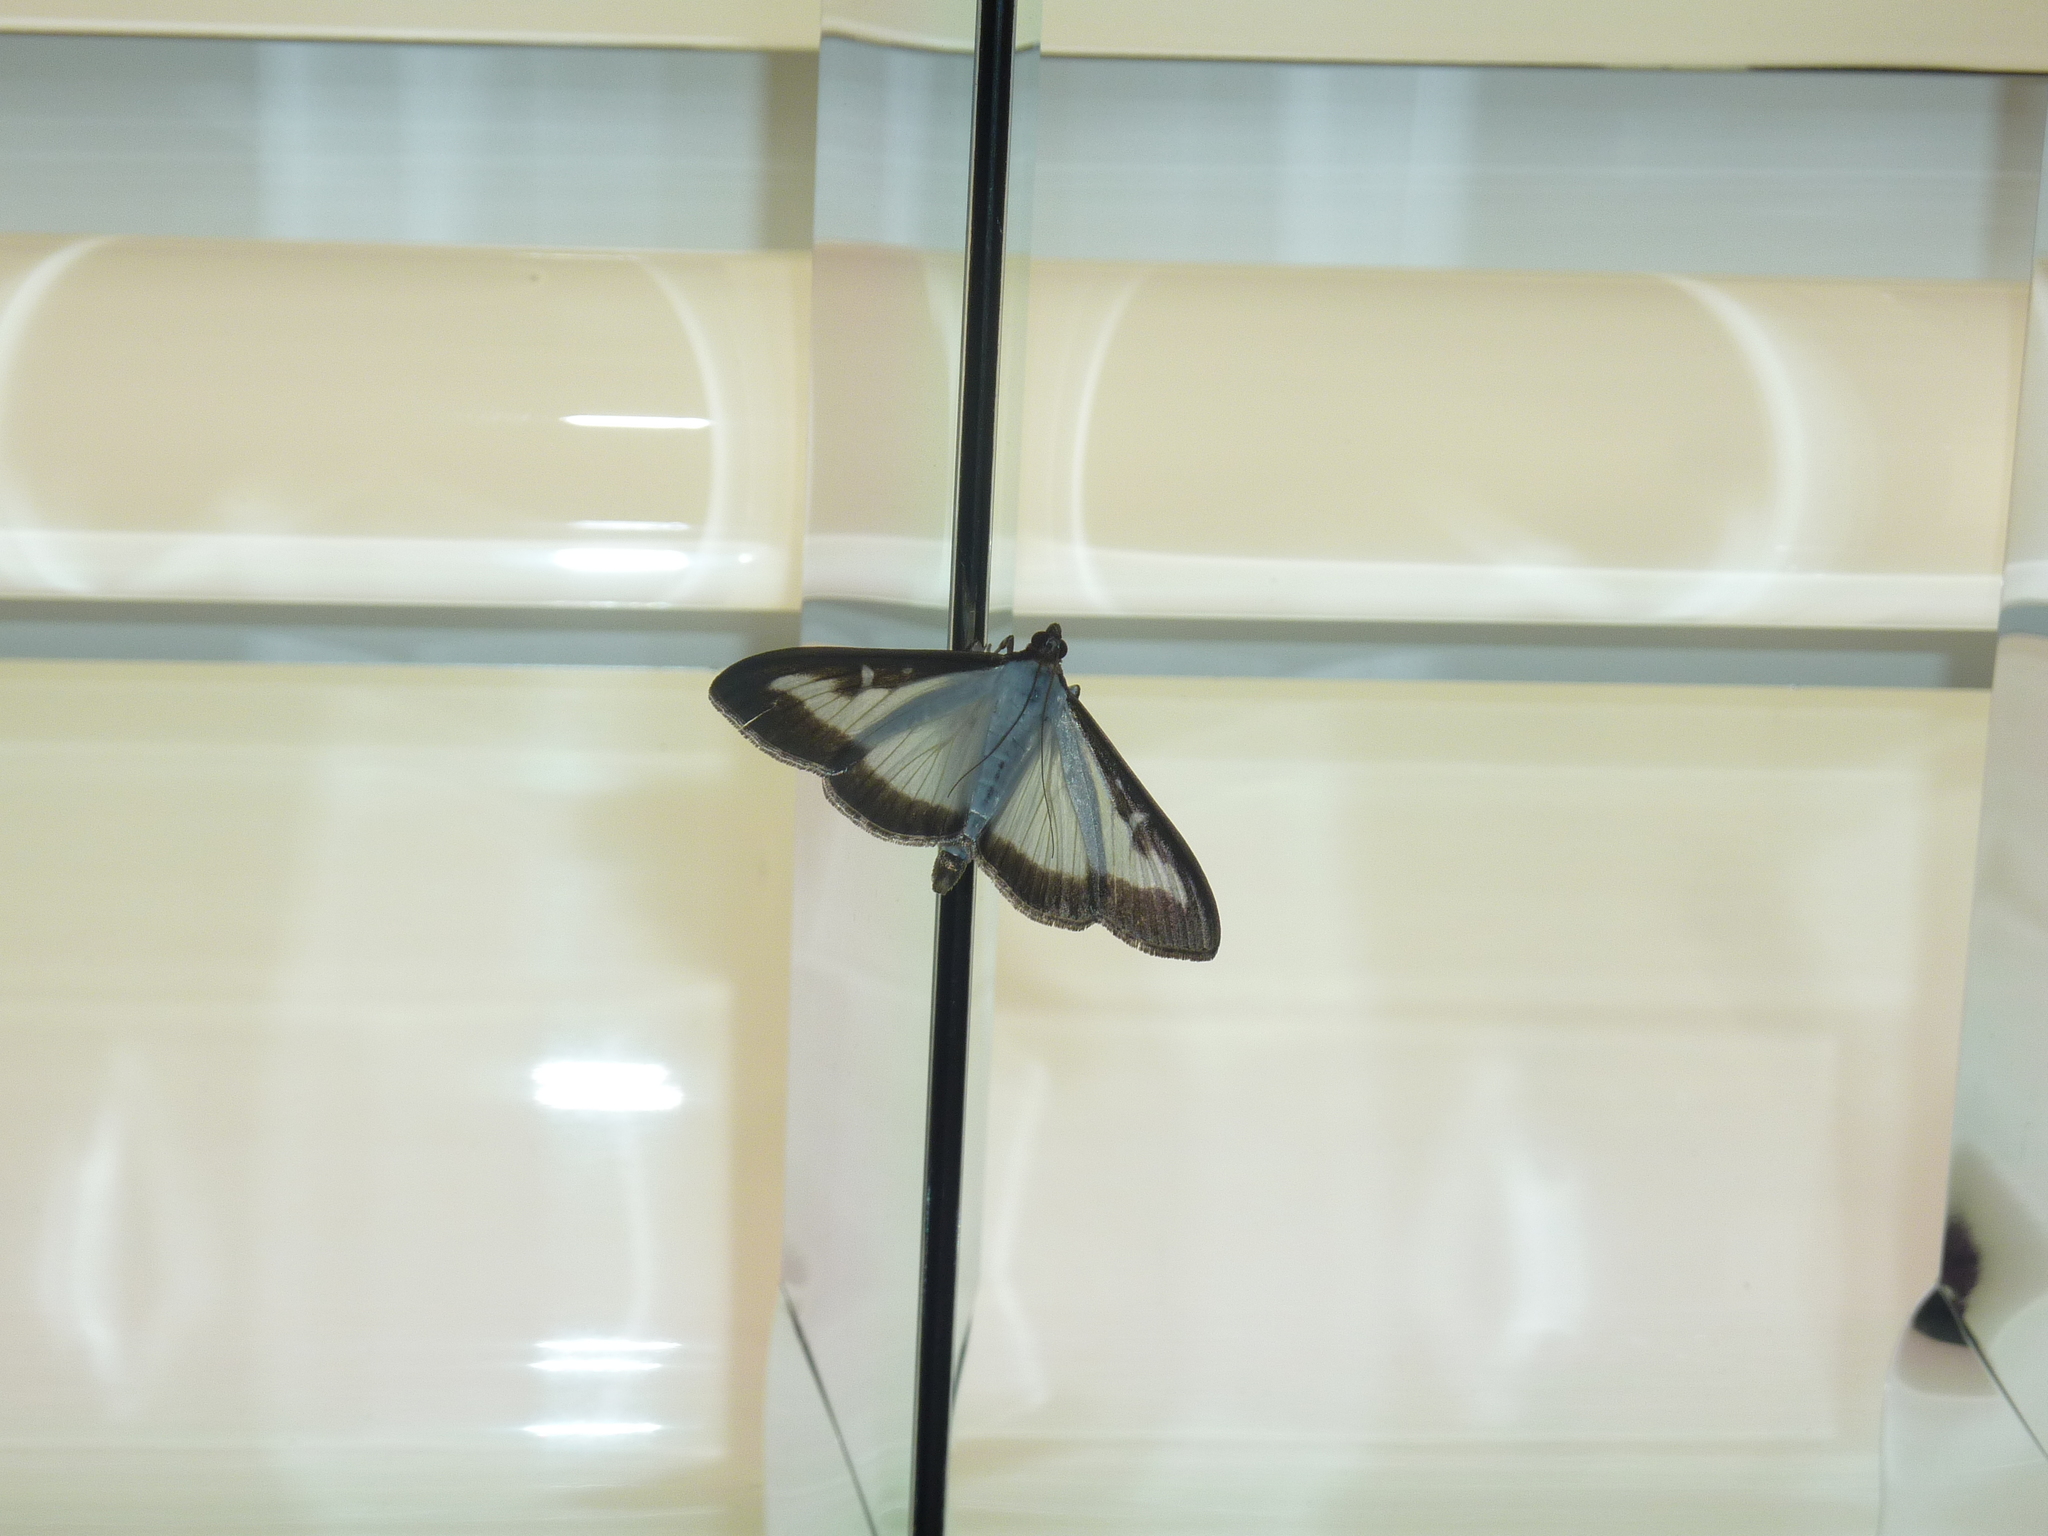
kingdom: Animalia
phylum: Arthropoda
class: Insecta
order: Lepidoptera
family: Crambidae
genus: Cydalima
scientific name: Cydalima perspectalis
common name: Box tree moth
